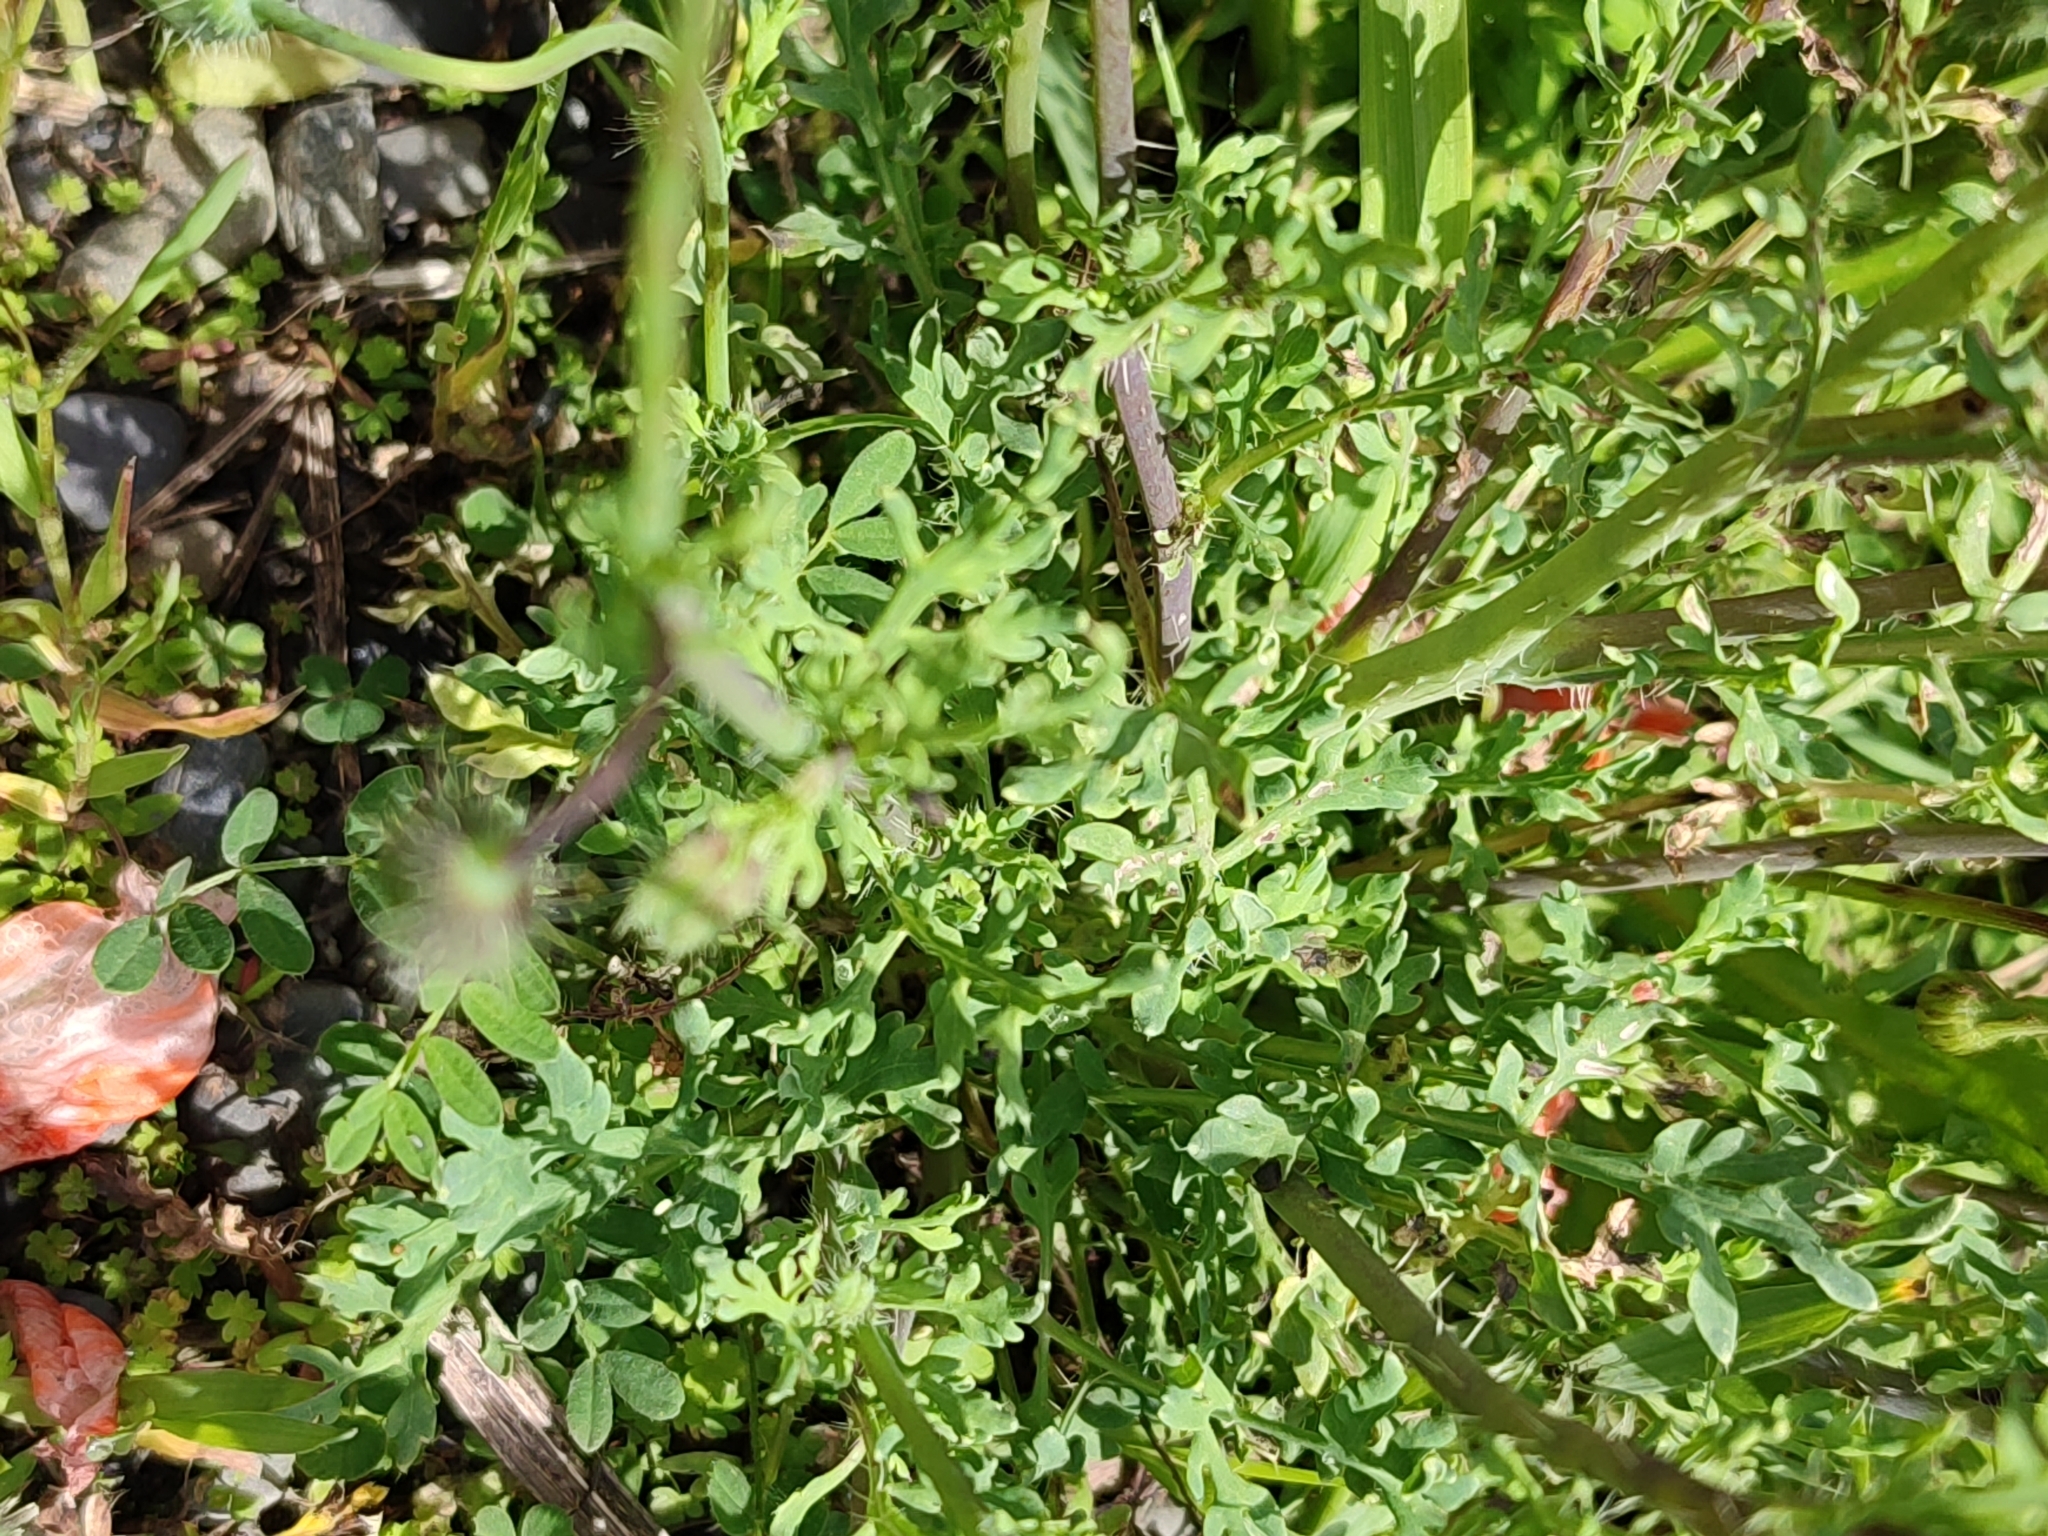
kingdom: Plantae
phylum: Tracheophyta
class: Magnoliopsida
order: Ranunculales
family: Papaveraceae
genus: Papaver
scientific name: Papaver armeniacum
